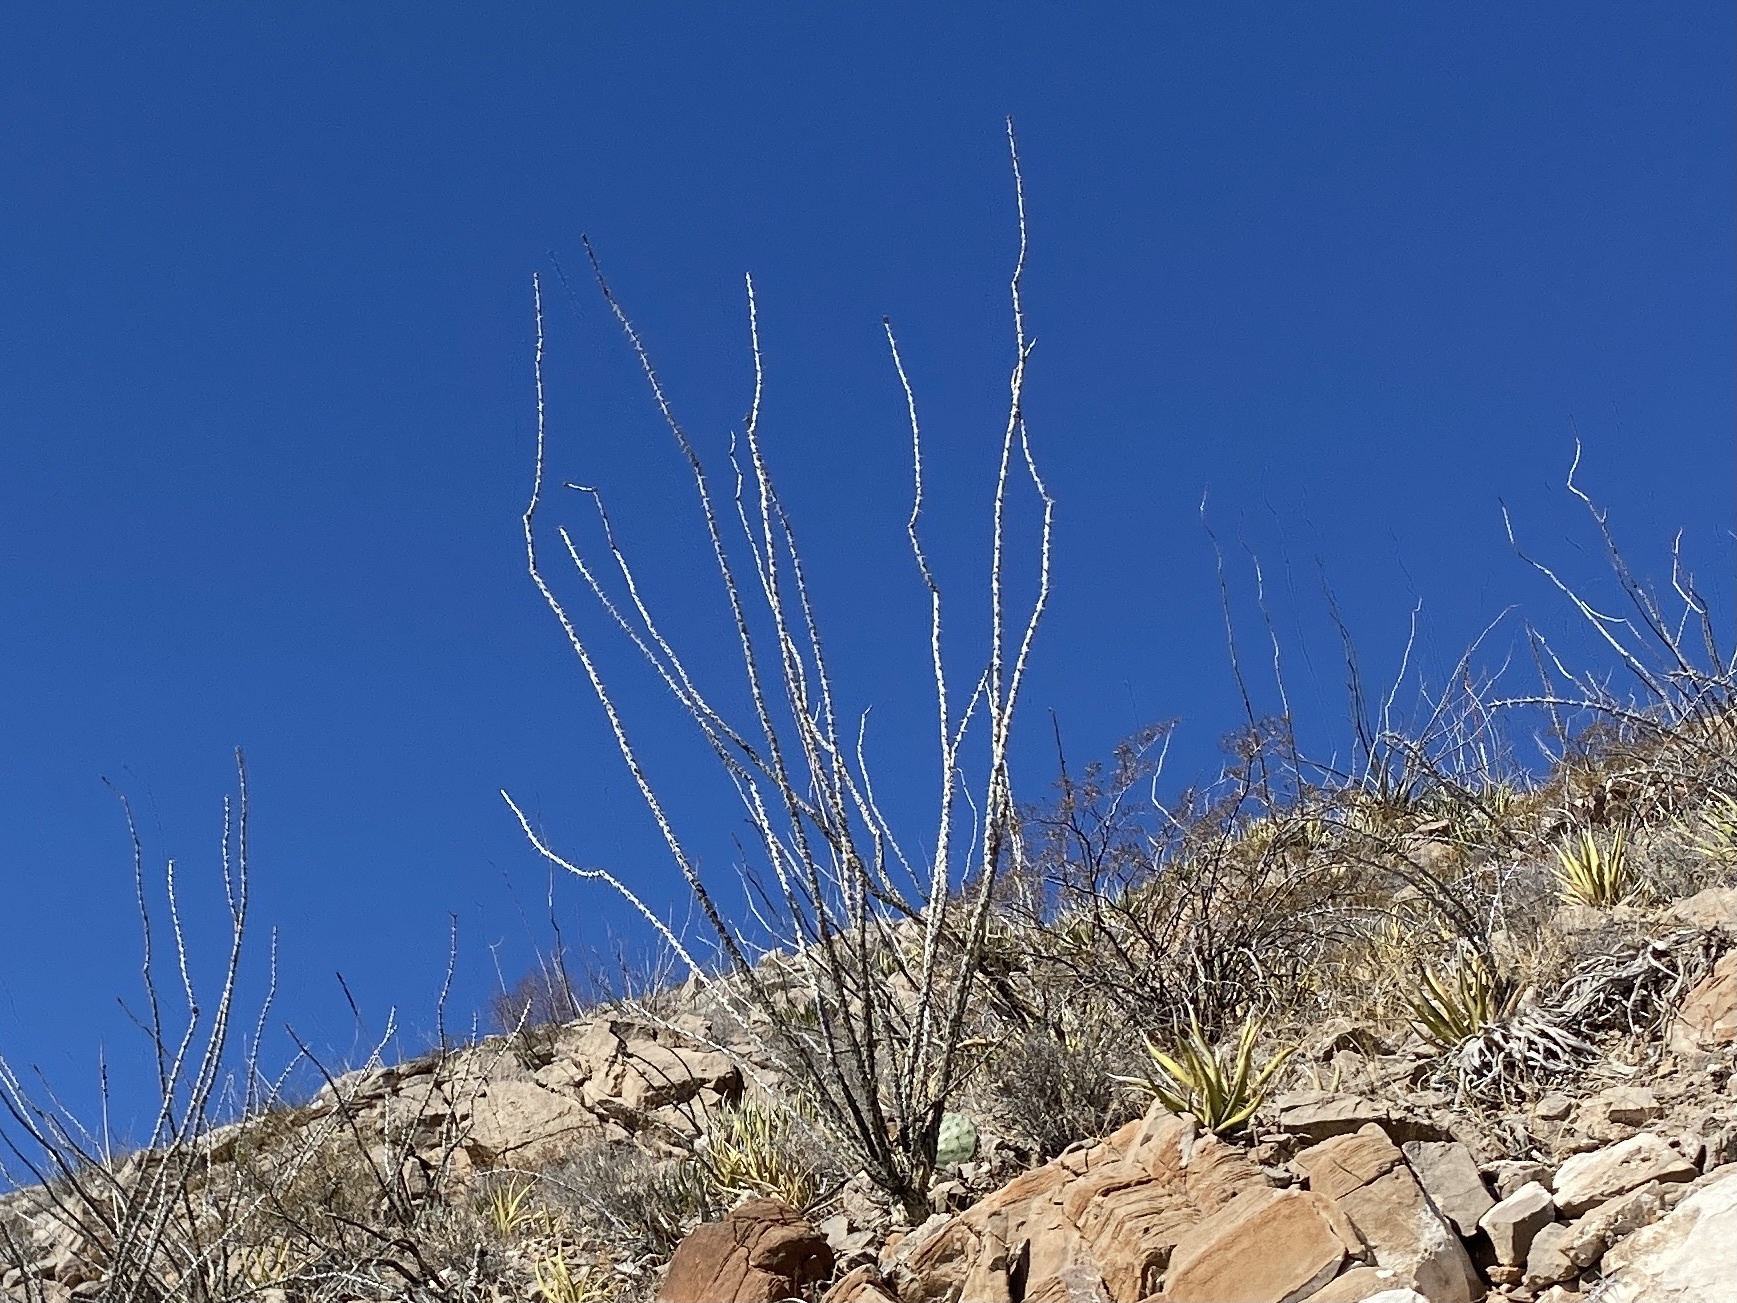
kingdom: Plantae
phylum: Tracheophyta
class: Magnoliopsida
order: Ericales
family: Fouquieriaceae
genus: Fouquieria
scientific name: Fouquieria splendens
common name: Vine-cactus
